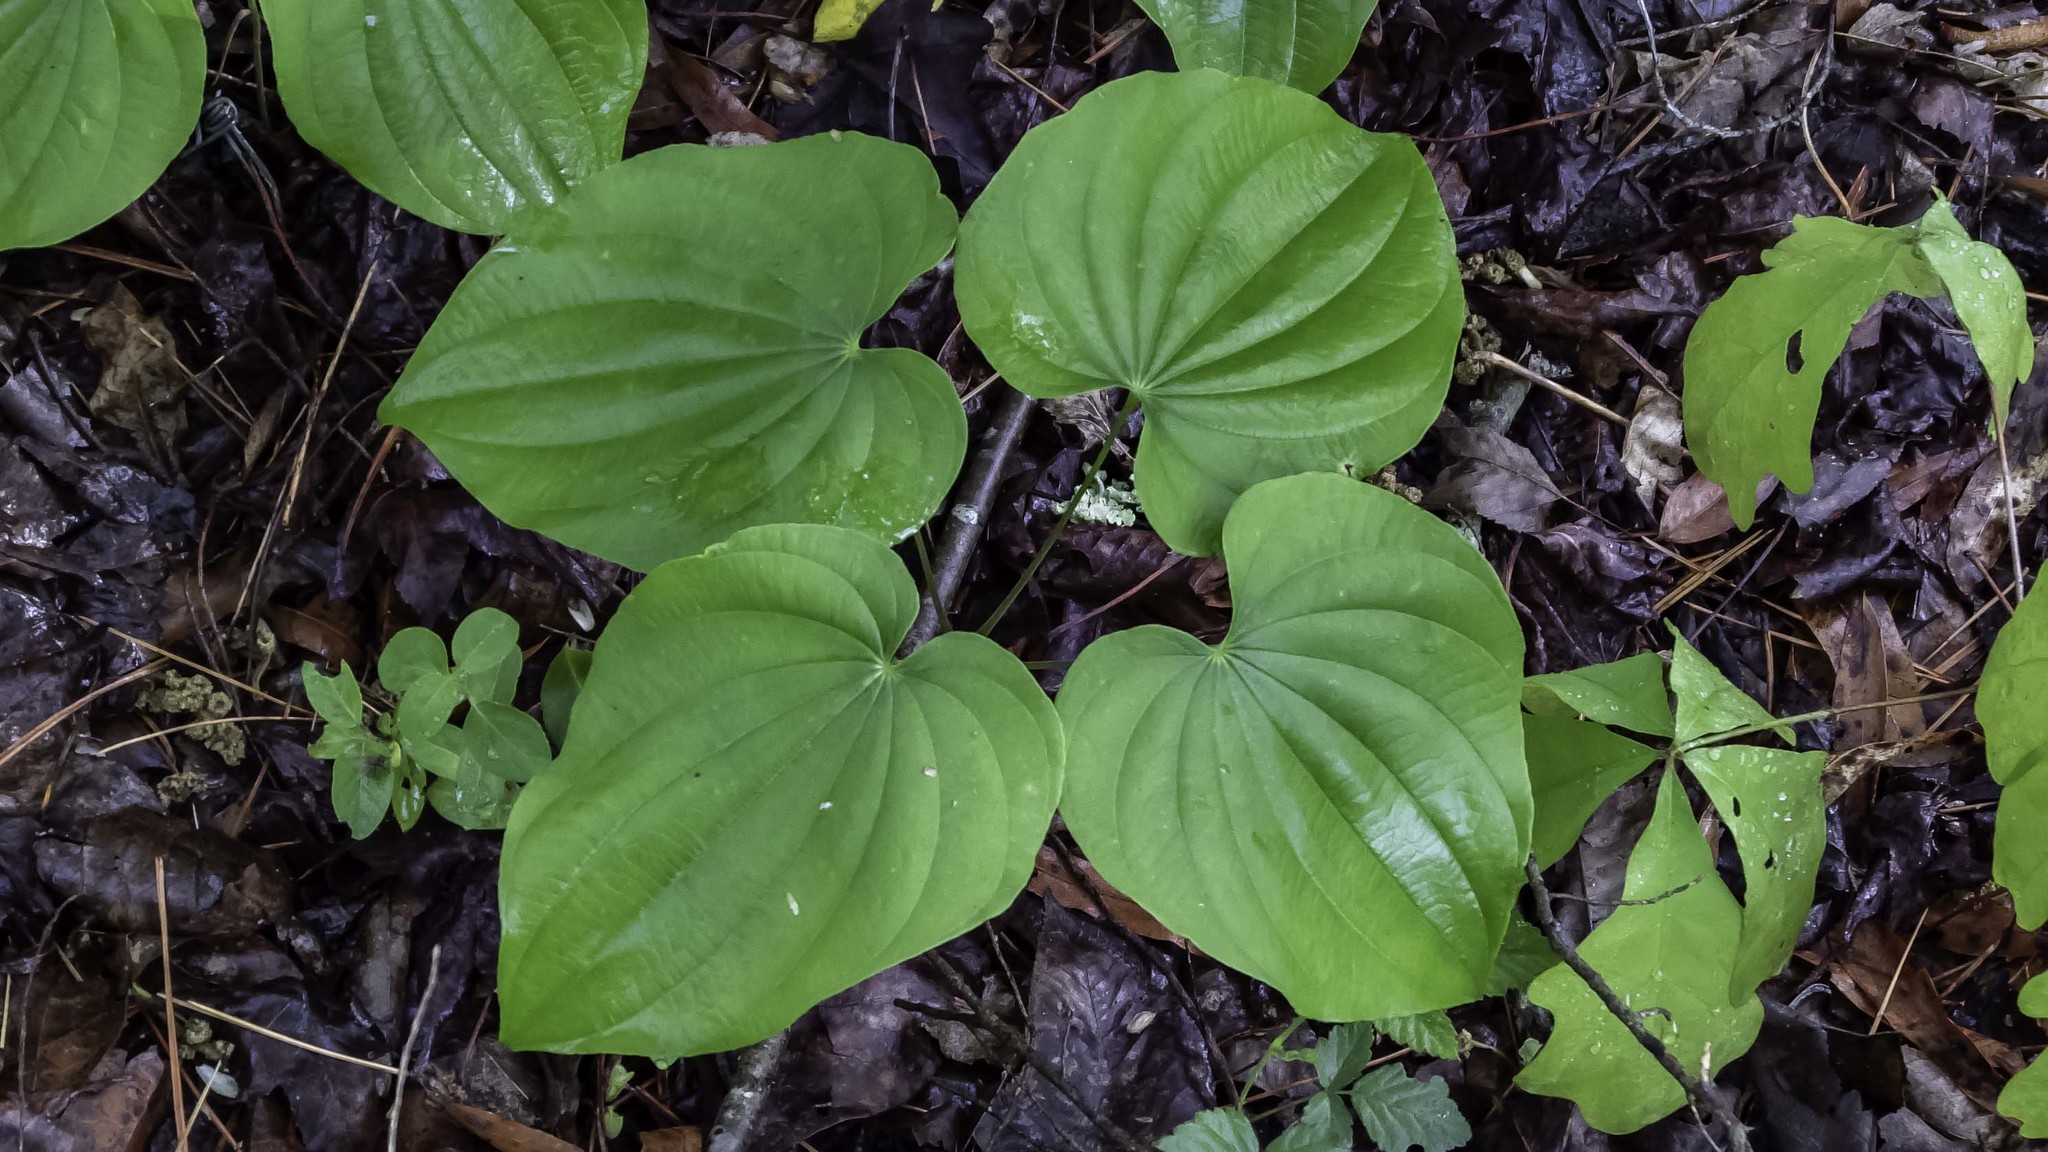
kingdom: Plantae
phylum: Tracheophyta
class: Liliopsida
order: Dioscoreales
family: Dioscoreaceae
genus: Dioscorea
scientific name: Dioscorea villosa
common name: Wild yam
